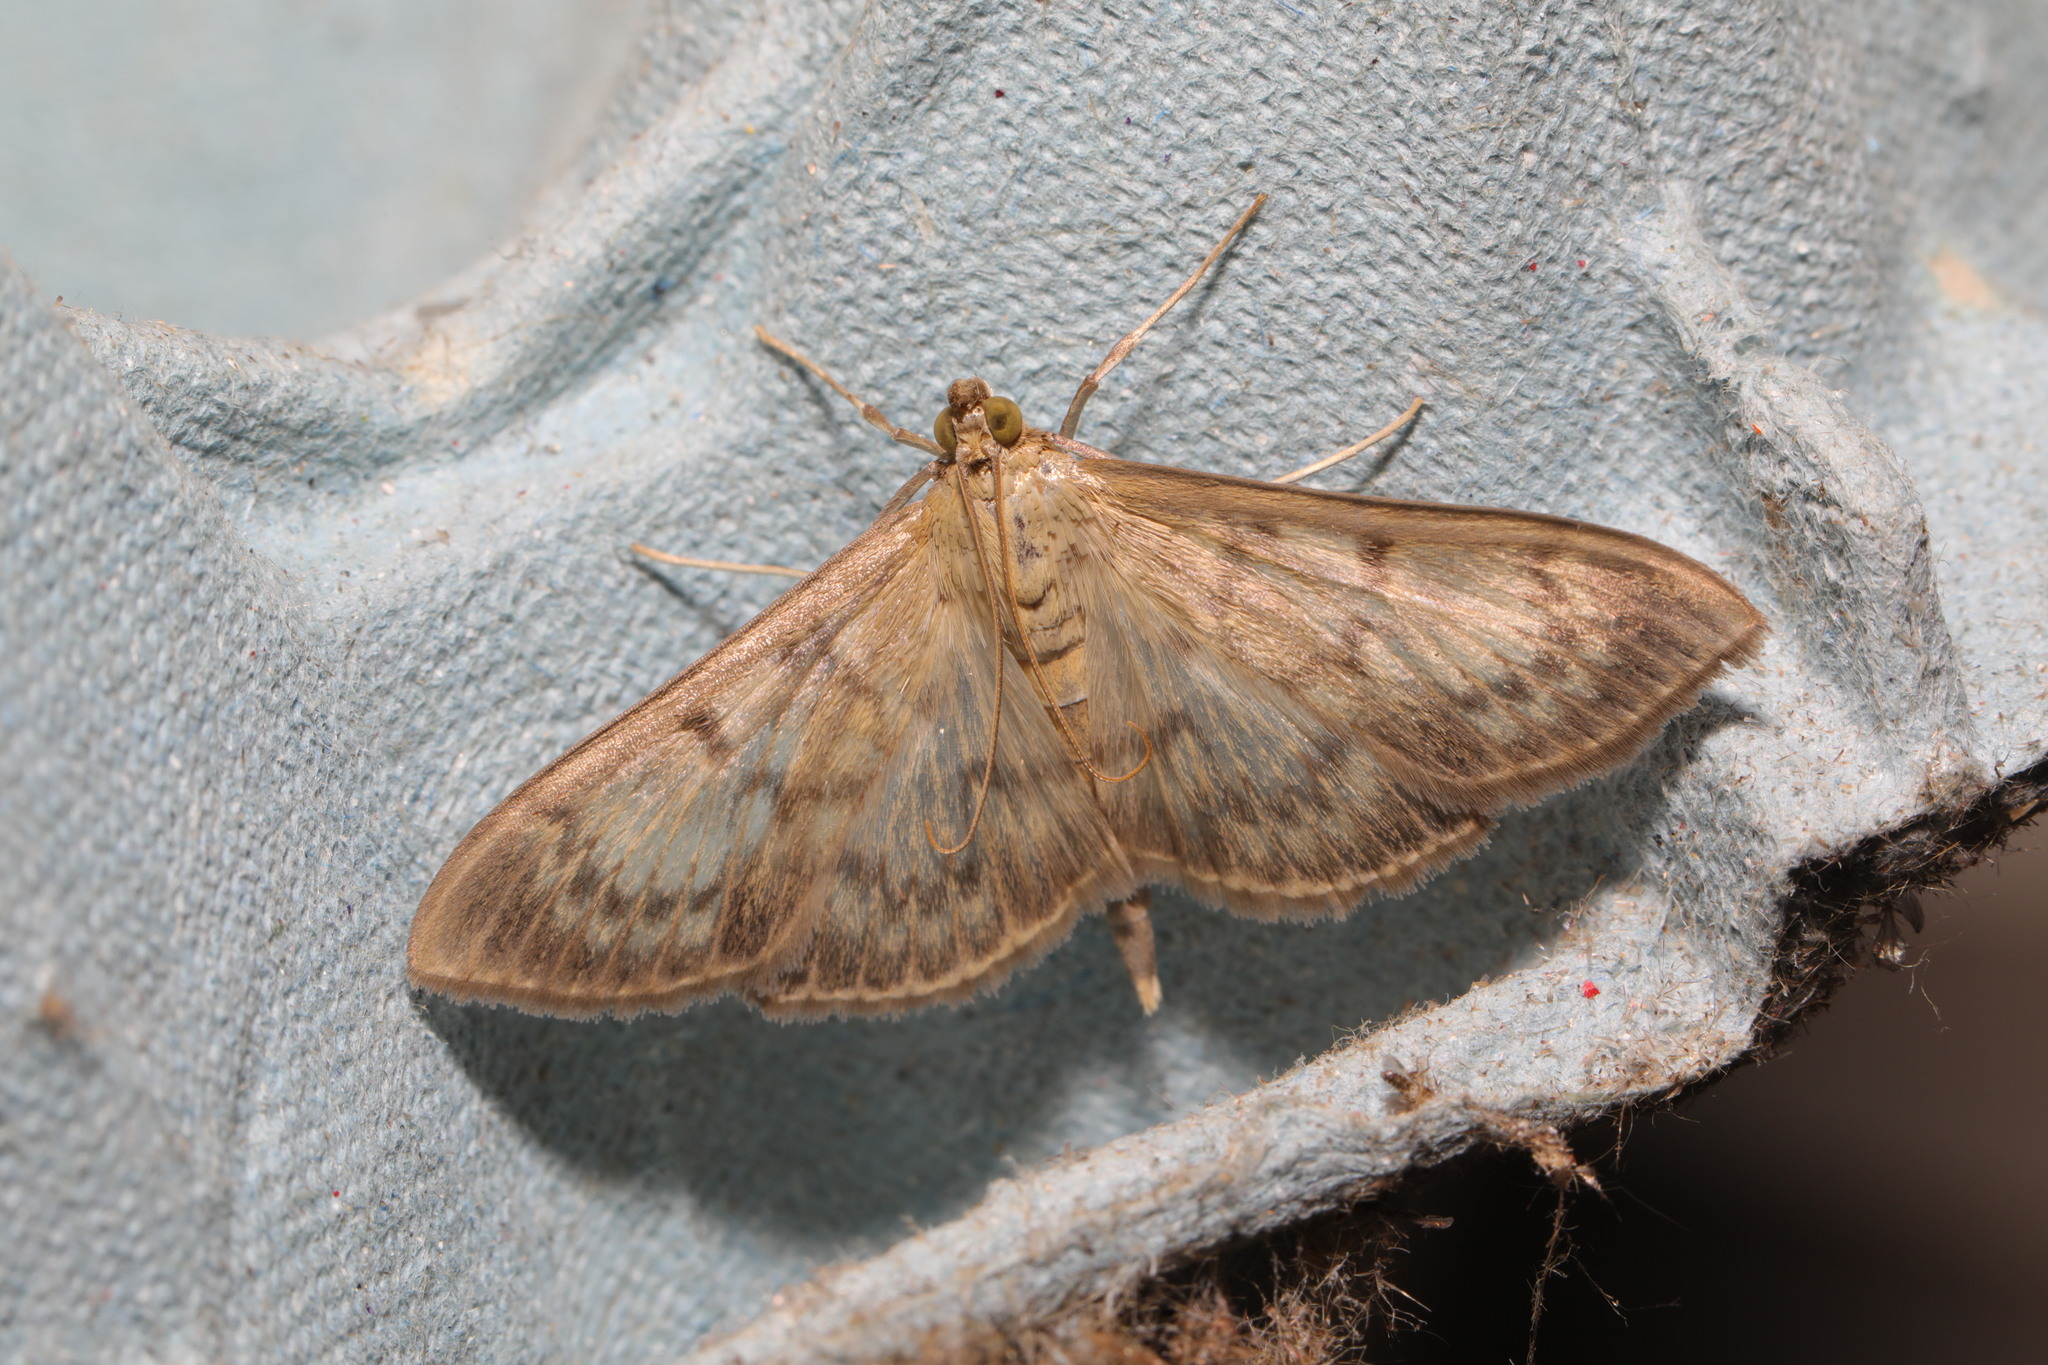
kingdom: Animalia
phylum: Arthropoda
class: Insecta
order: Lepidoptera
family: Crambidae
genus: Patania
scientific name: Patania ruralis
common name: Mother of pearl
